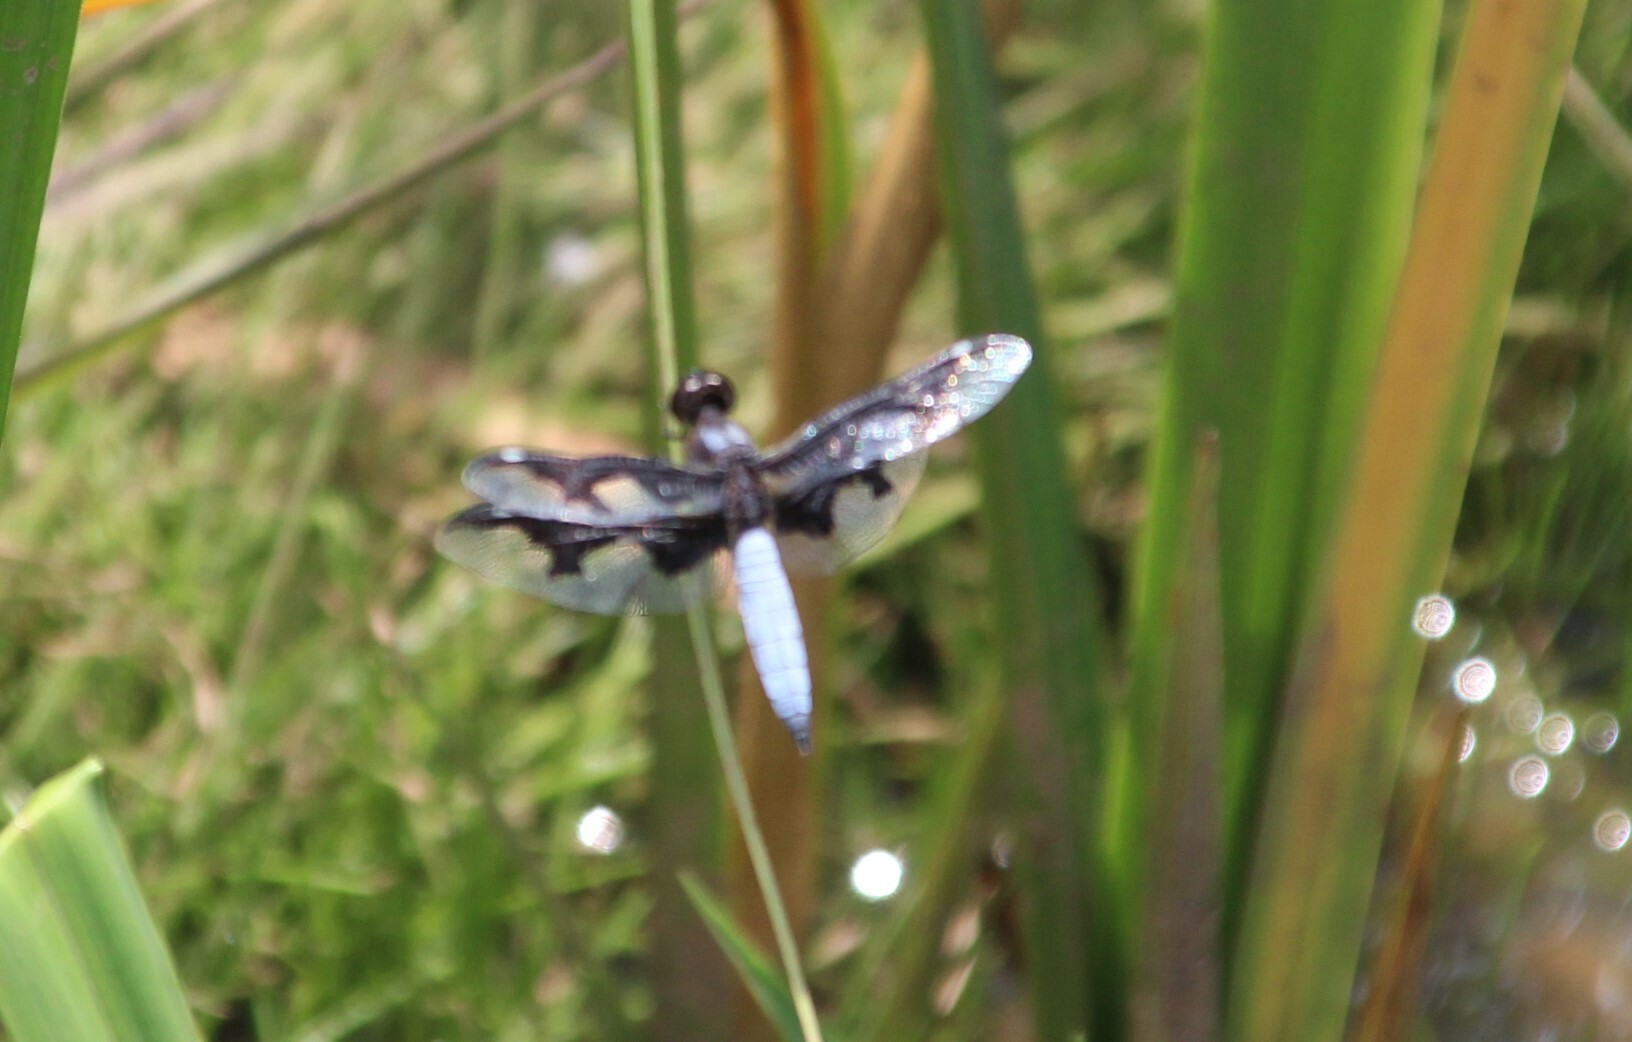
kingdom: Animalia
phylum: Arthropoda
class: Insecta
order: Odonata
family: Libellulidae
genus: Palpopleura
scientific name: Palpopleura portia
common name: Portia widow
